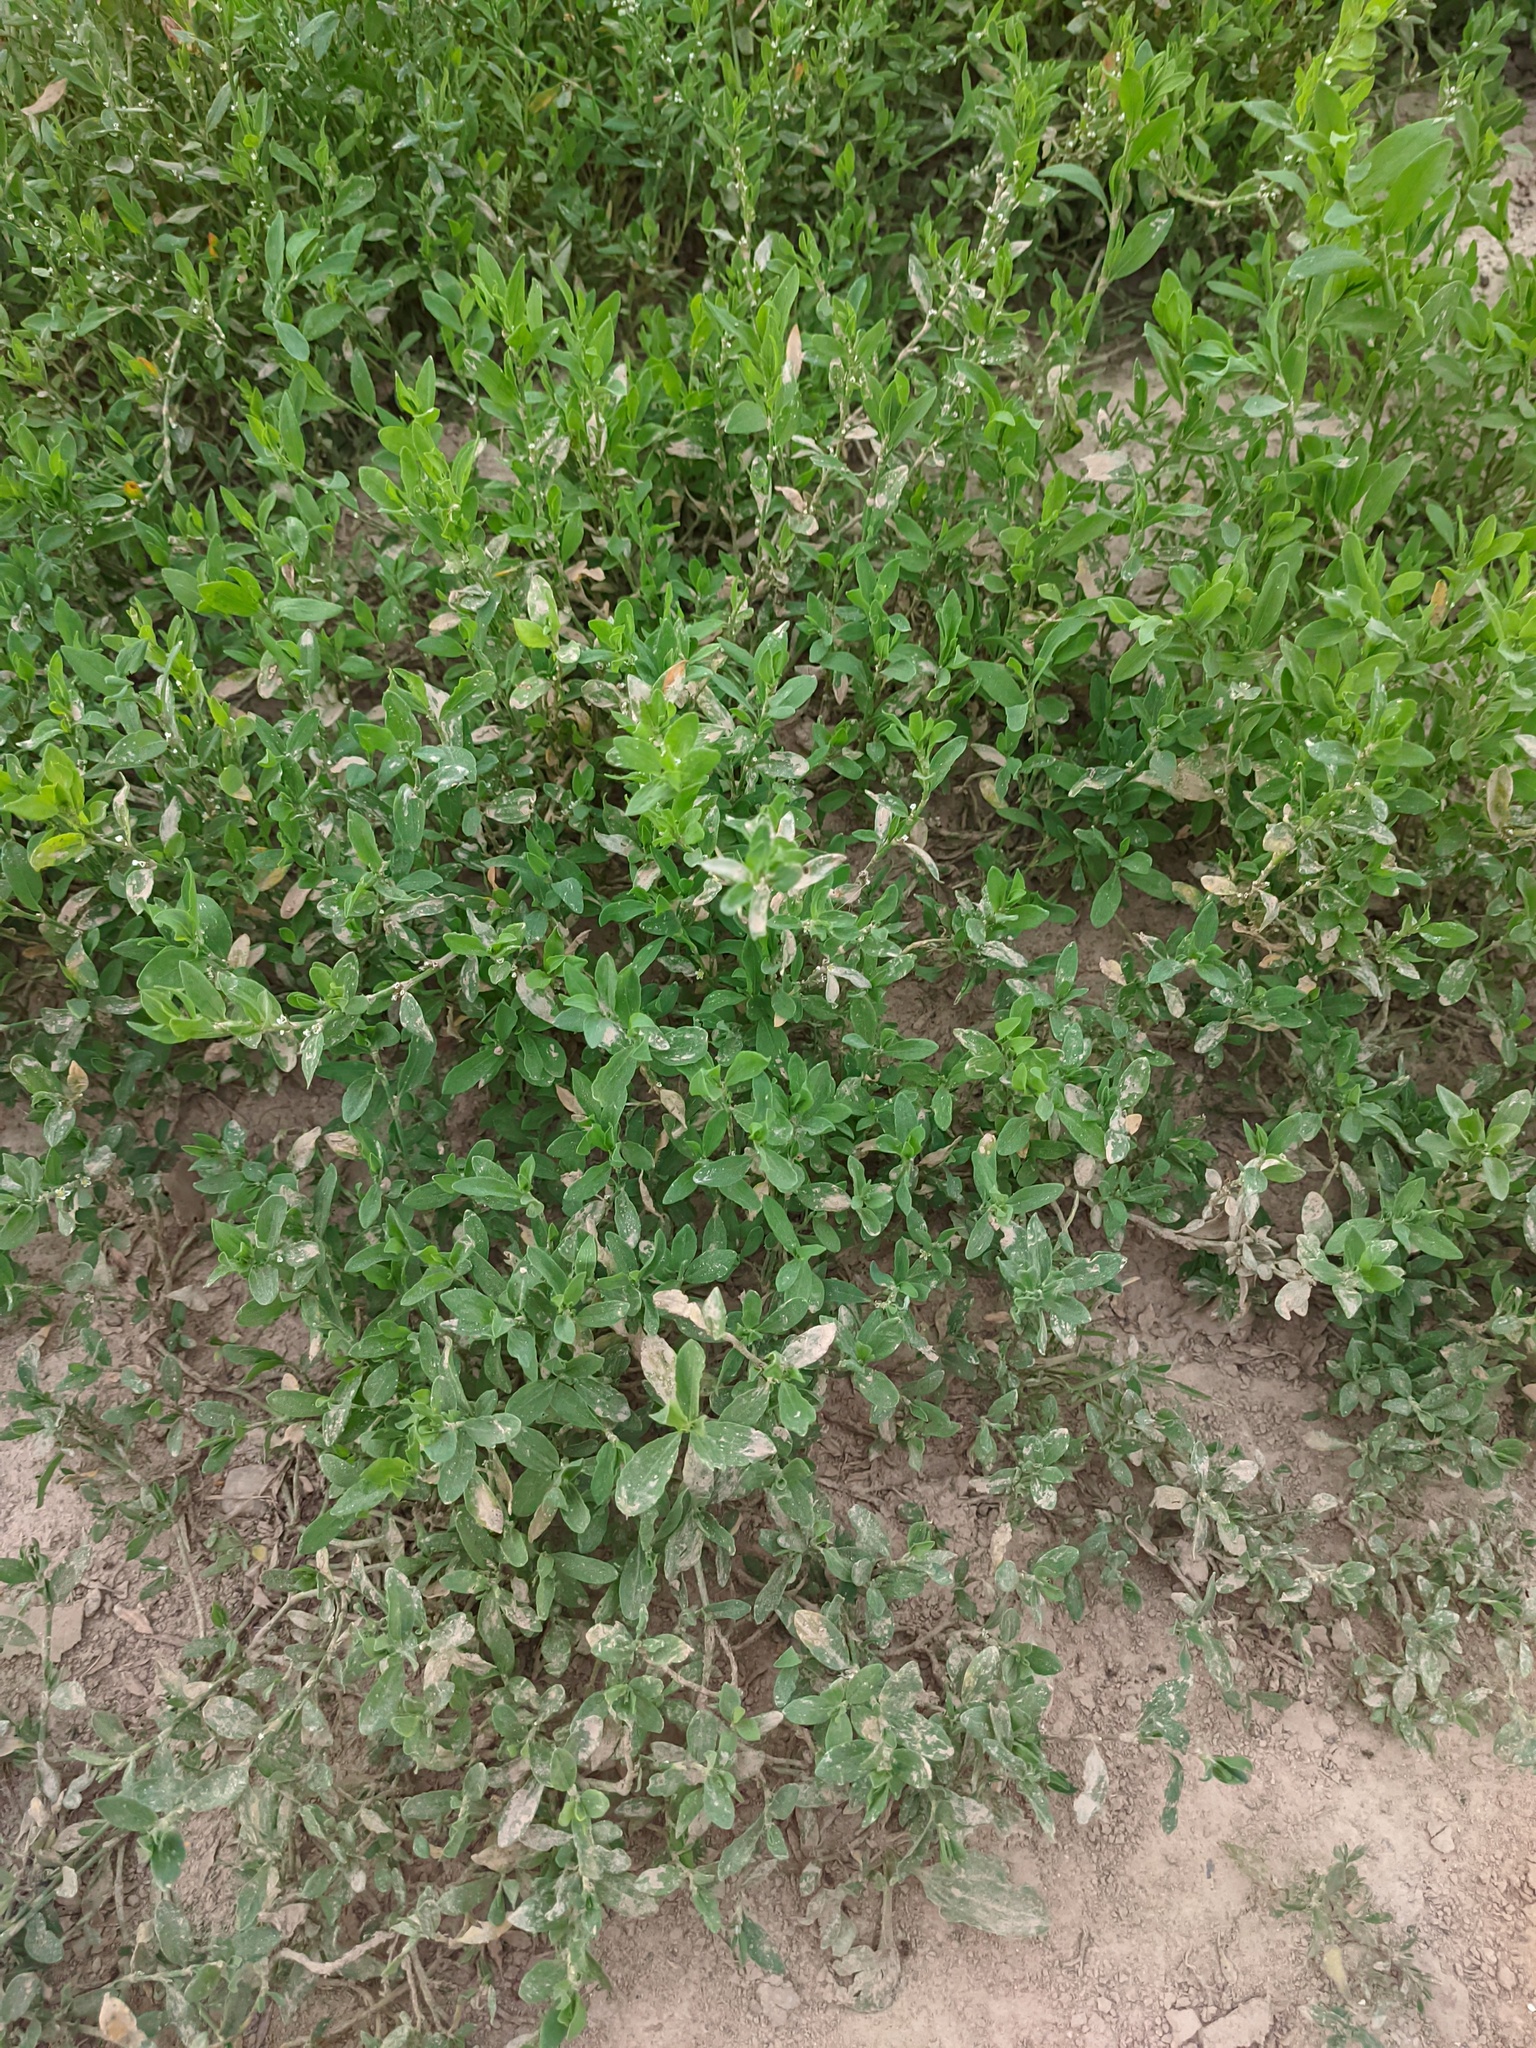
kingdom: Plantae
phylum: Tracheophyta
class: Magnoliopsida
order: Caryophyllales
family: Polygonaceae
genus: Polygonum
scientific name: Polygonum
